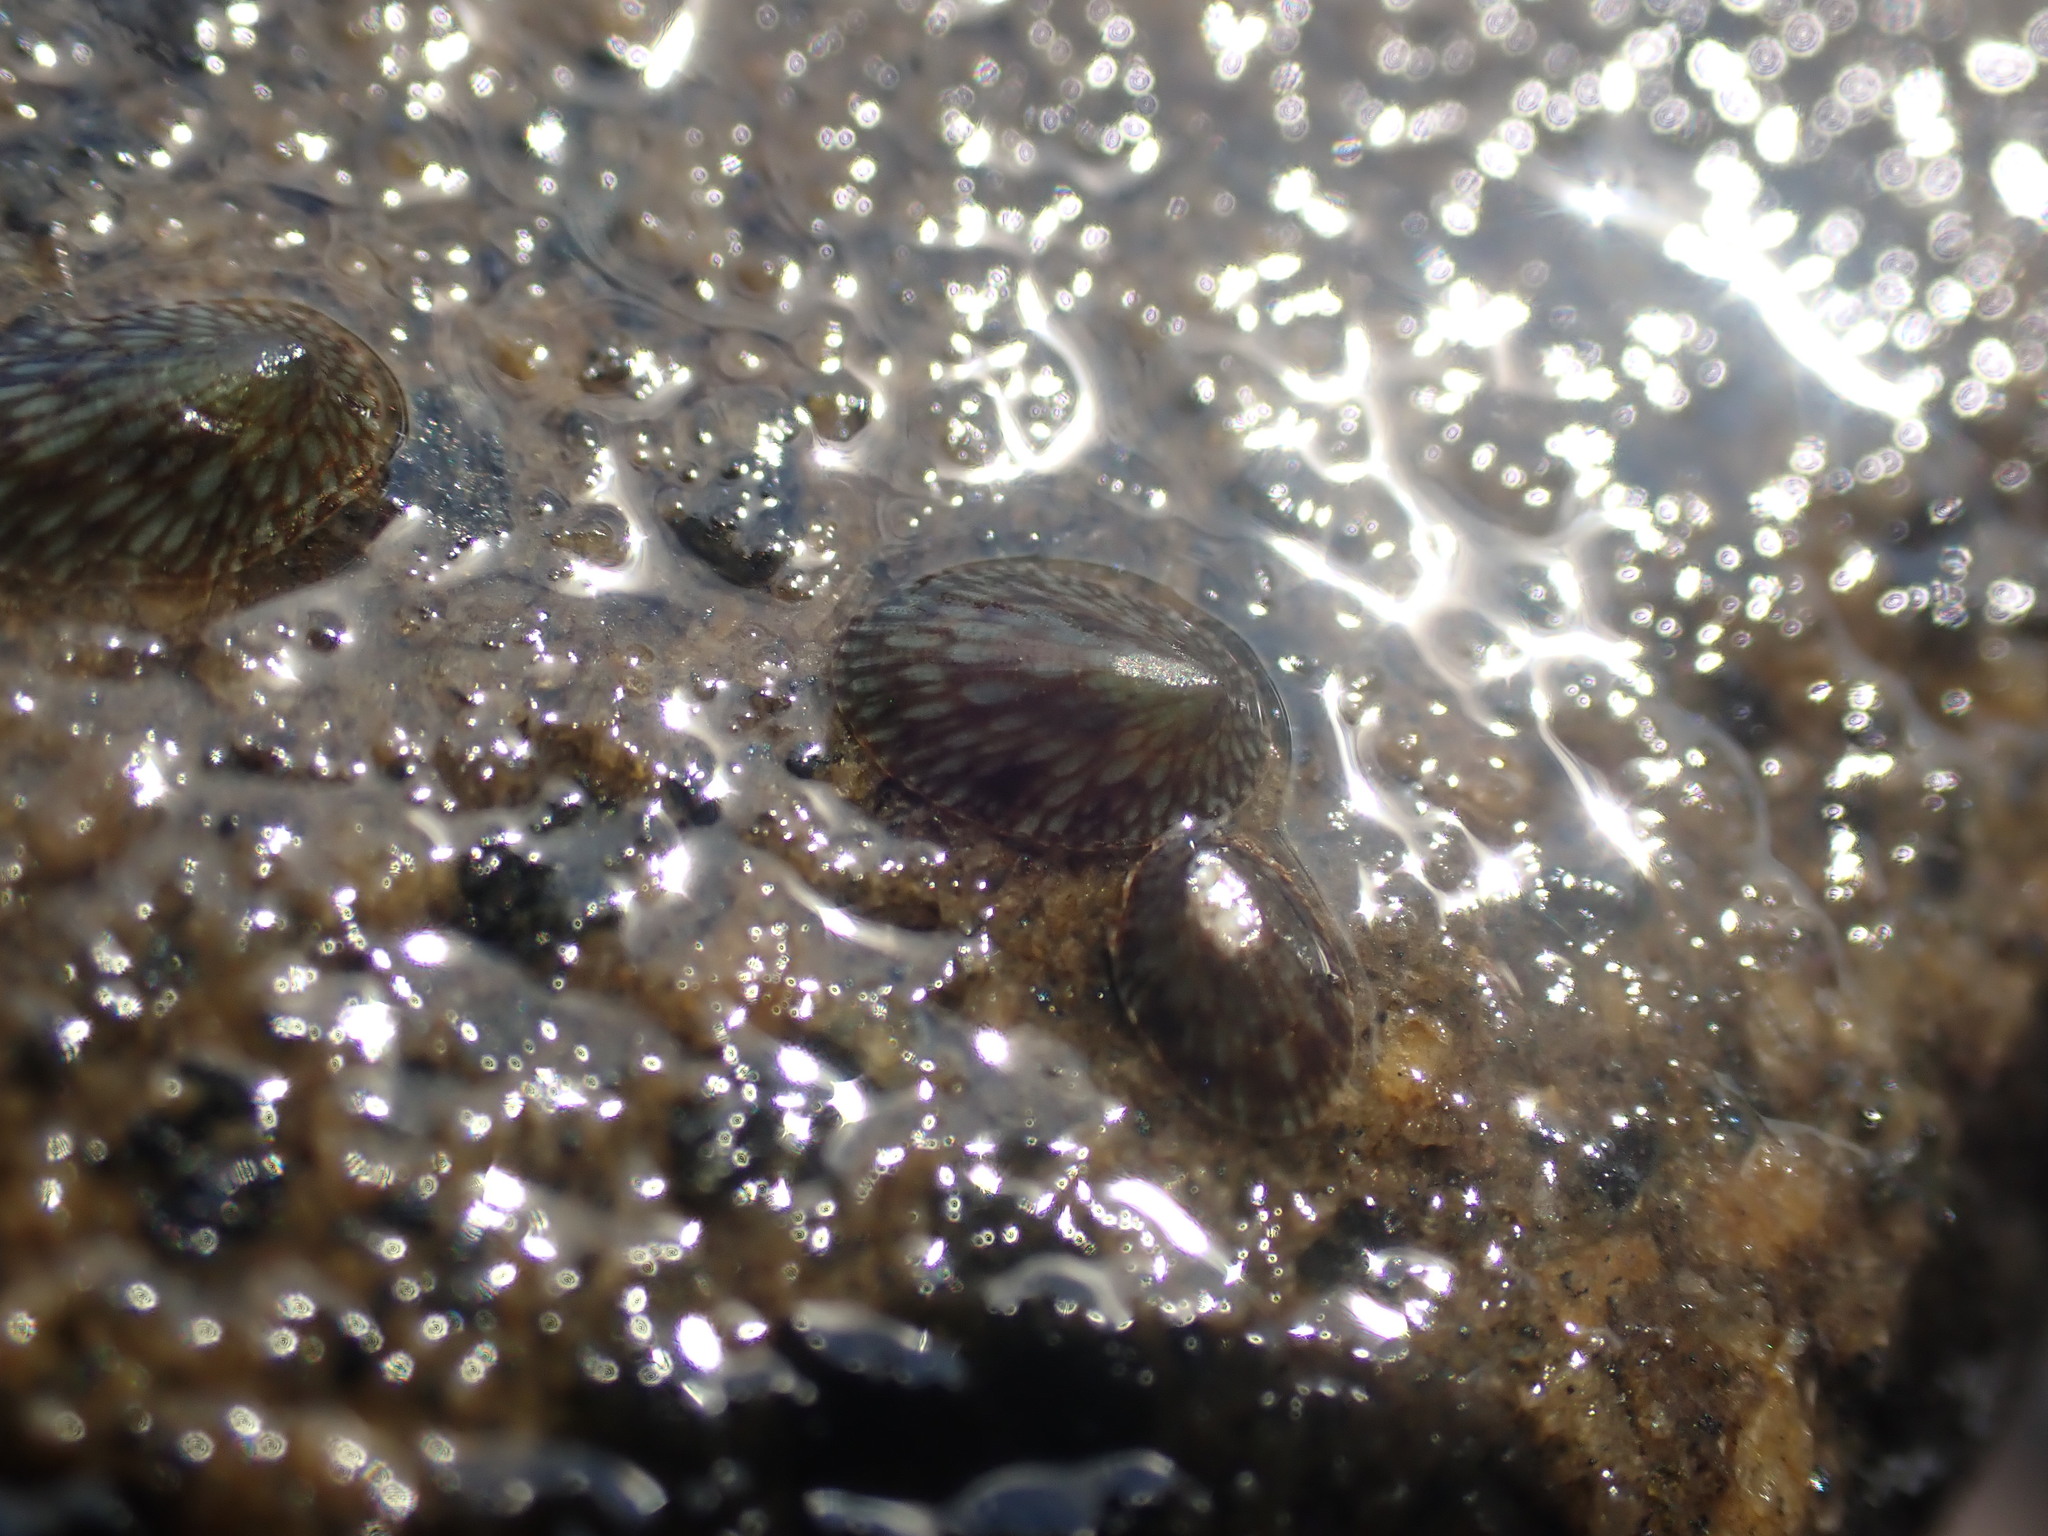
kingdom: Animalia
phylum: Mollusca
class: Gastropoda
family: Lottiidae
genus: Notoacmea
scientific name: Notoacmea
